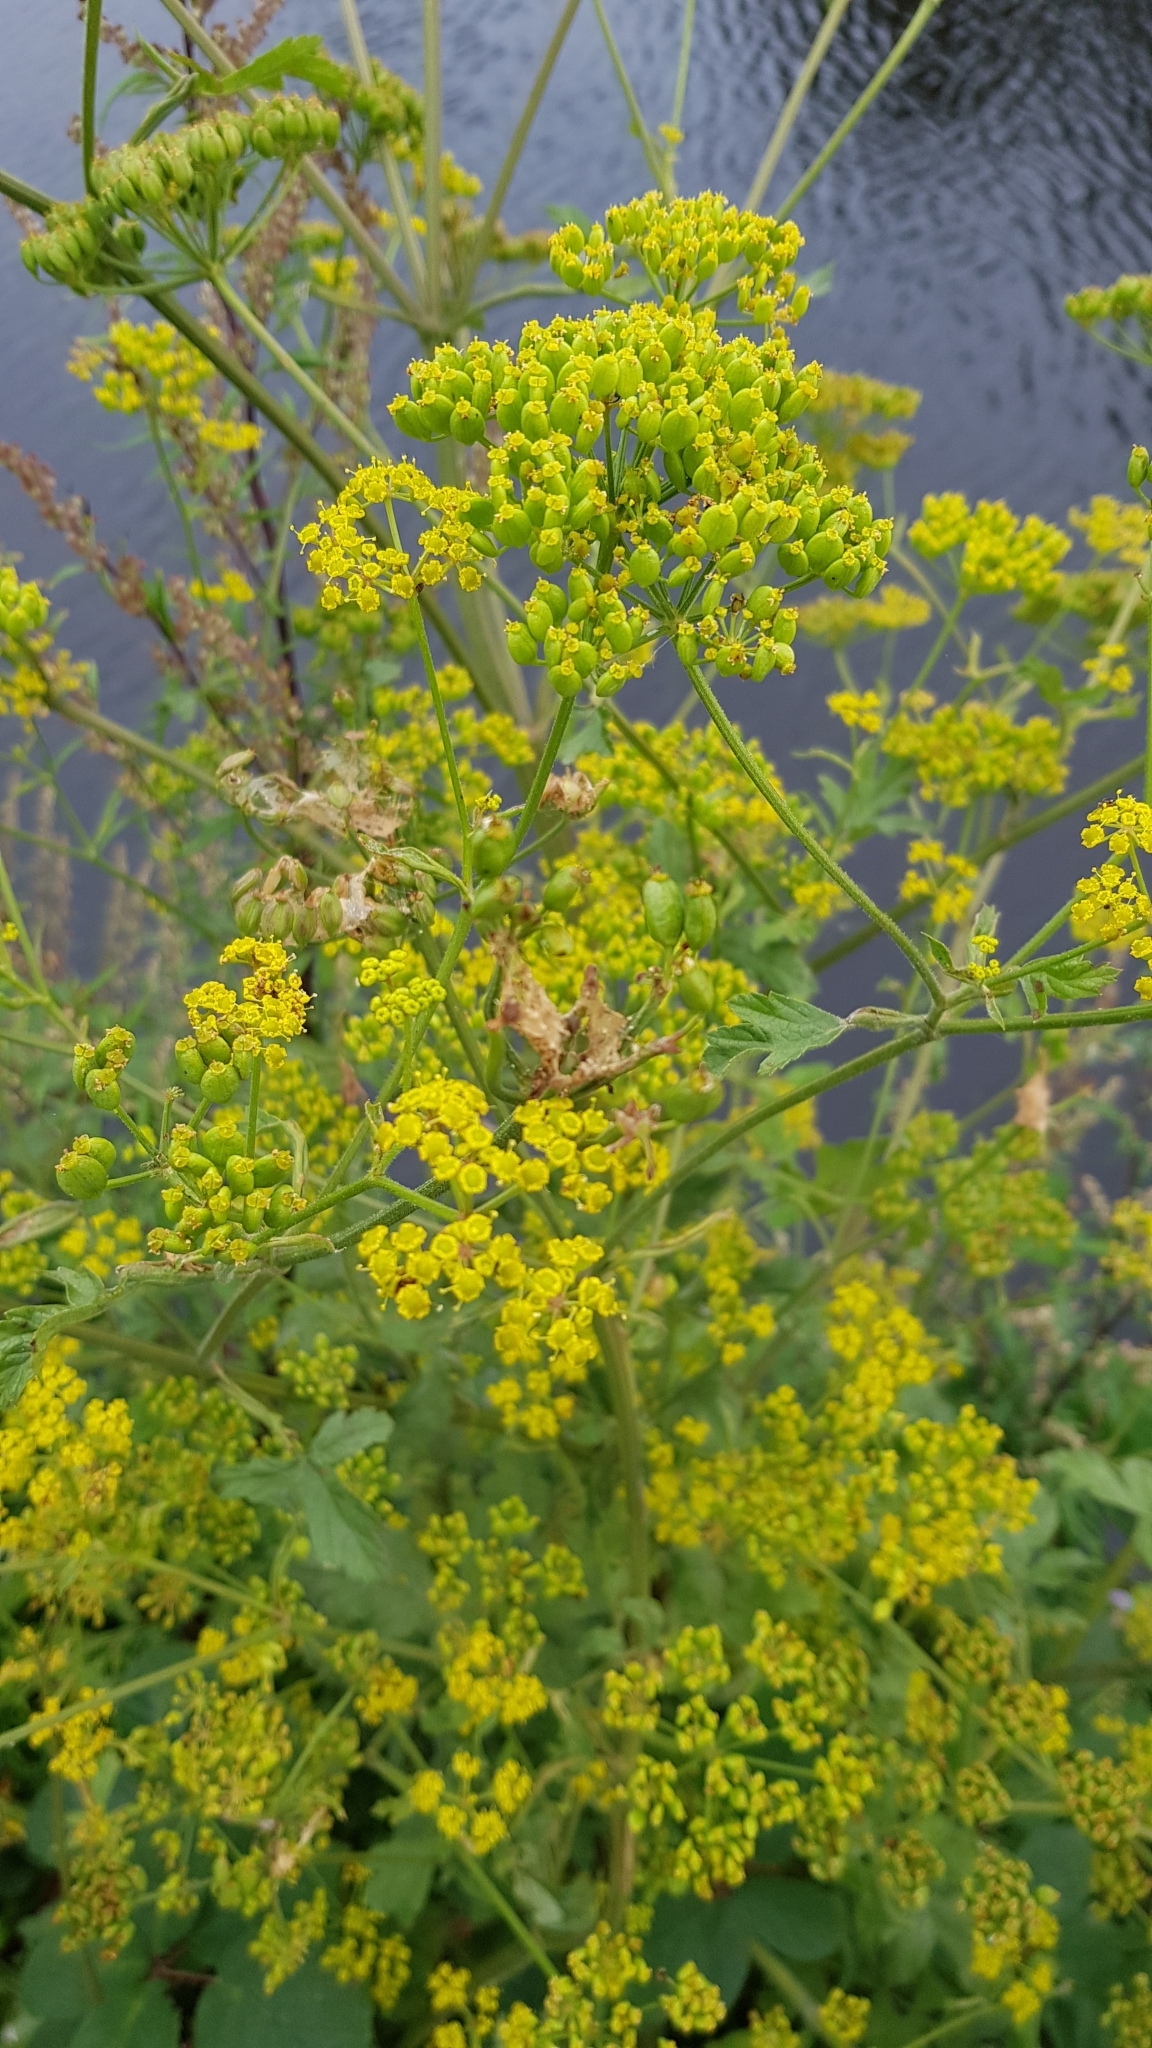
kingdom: Plantae
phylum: Tracheophyta
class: Magnoliopsida
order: Apiales
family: Apiaceae
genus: Pastinaca
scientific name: Pastinaca sativa
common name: Wild parsnip
